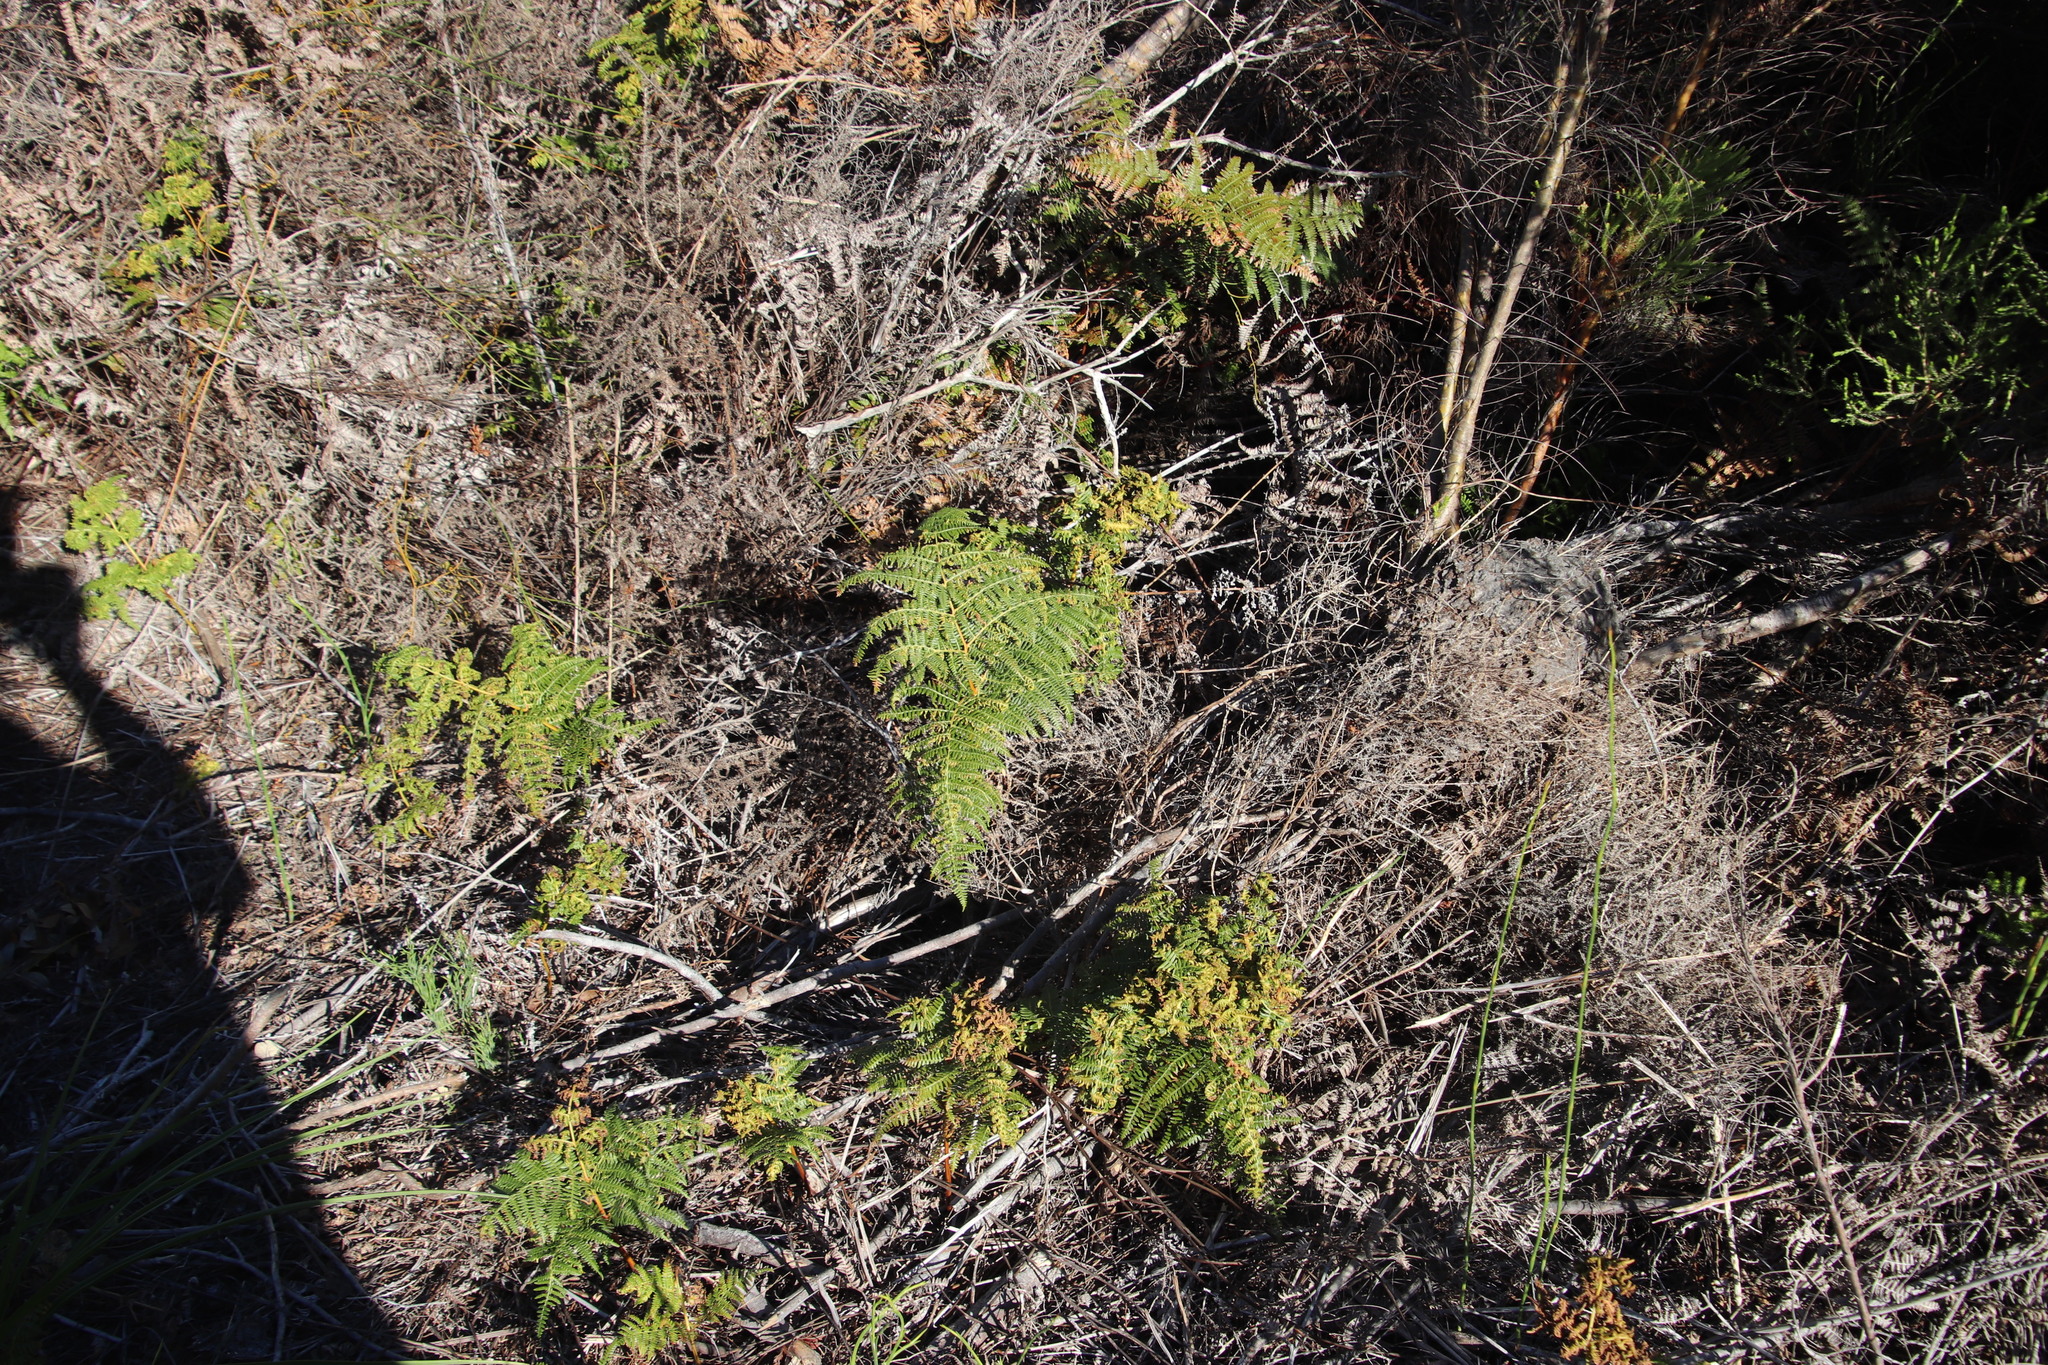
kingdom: Plantae
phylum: Tracheophyta
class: Polypodiopsida
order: Polypodiales
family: Dennstaedtiaceae
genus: Pteridium
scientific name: Pteridium aquilinum
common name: Bracken
